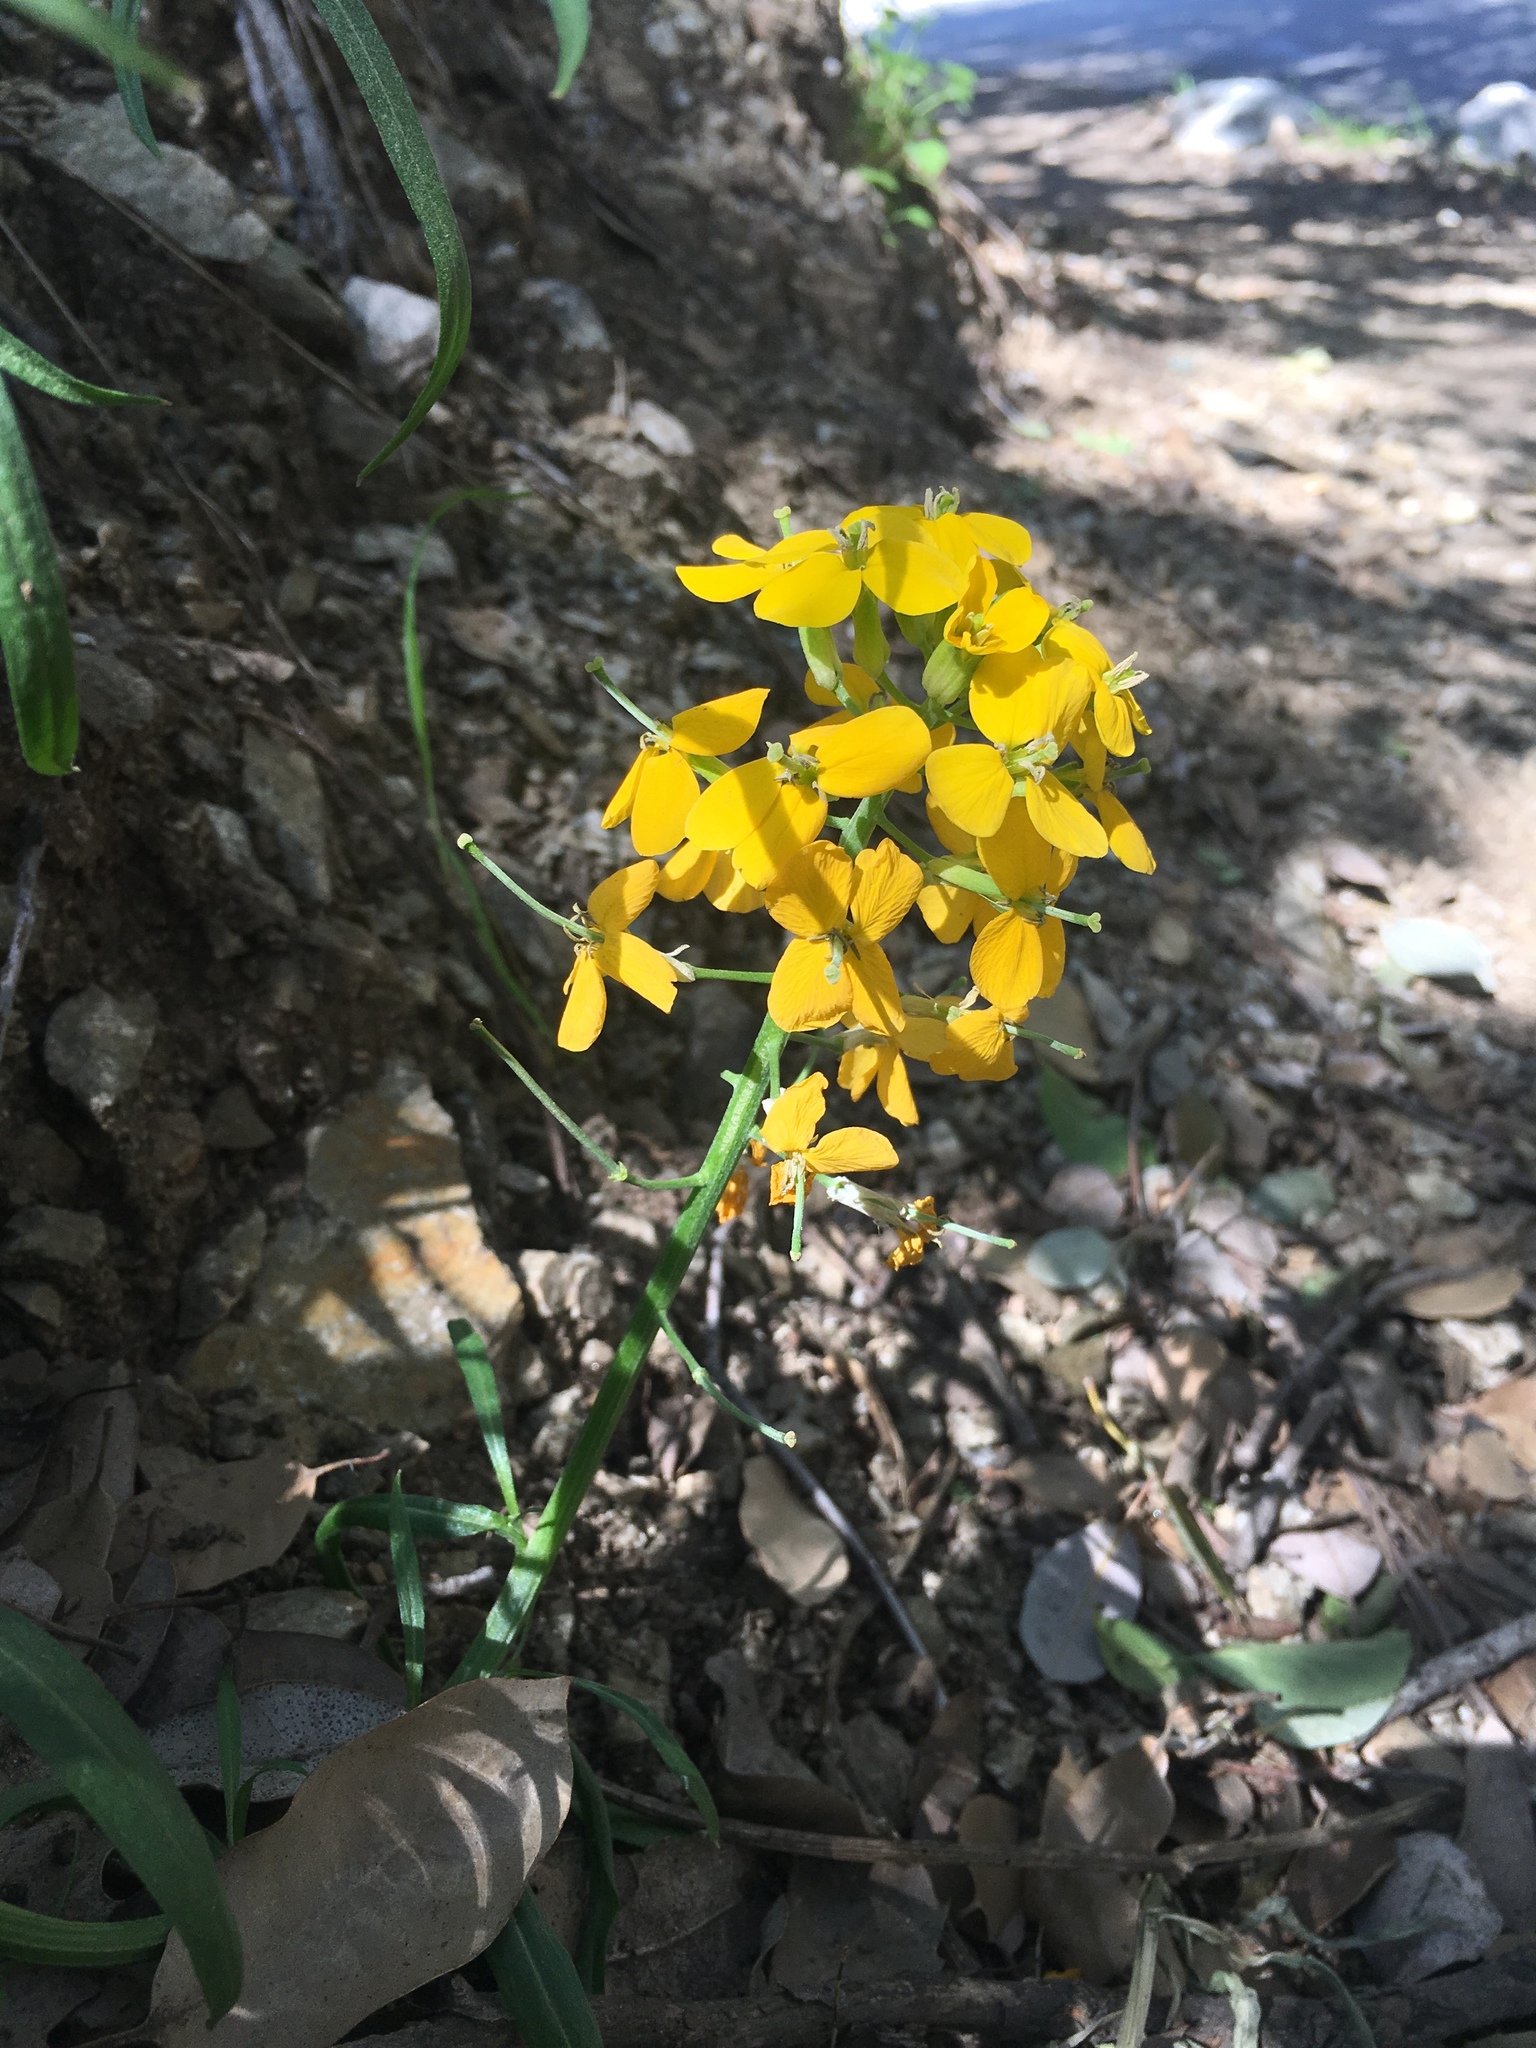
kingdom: Plantae
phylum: Tracheophyta
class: Magnoliopsida
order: Brassicales
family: Brassicaceae
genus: Erysimum
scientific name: Erysimum capitatum
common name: Western wallflower
